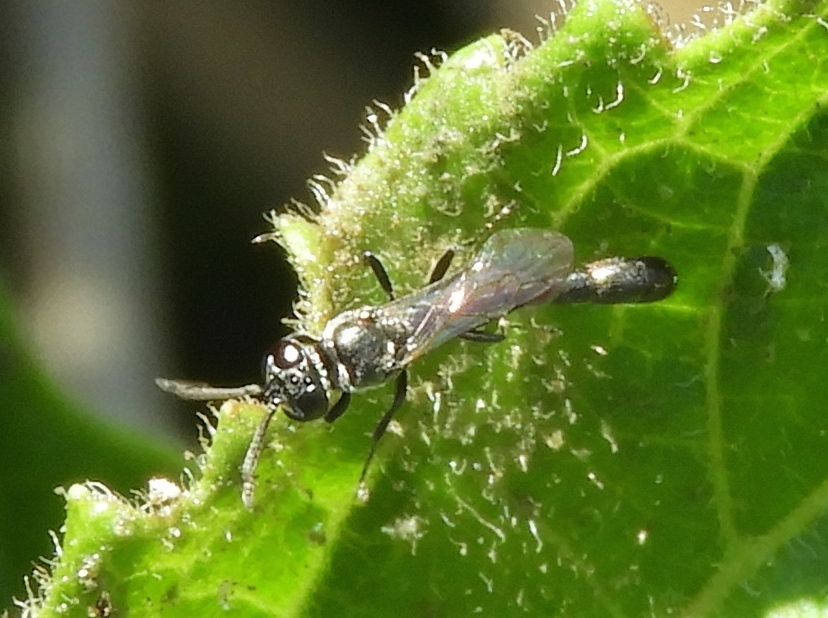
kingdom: Animalia
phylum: Arthropoda
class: Insecta
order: Hymenoptera
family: Crabronidae
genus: Trypoxylon
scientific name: Trypoxylon
